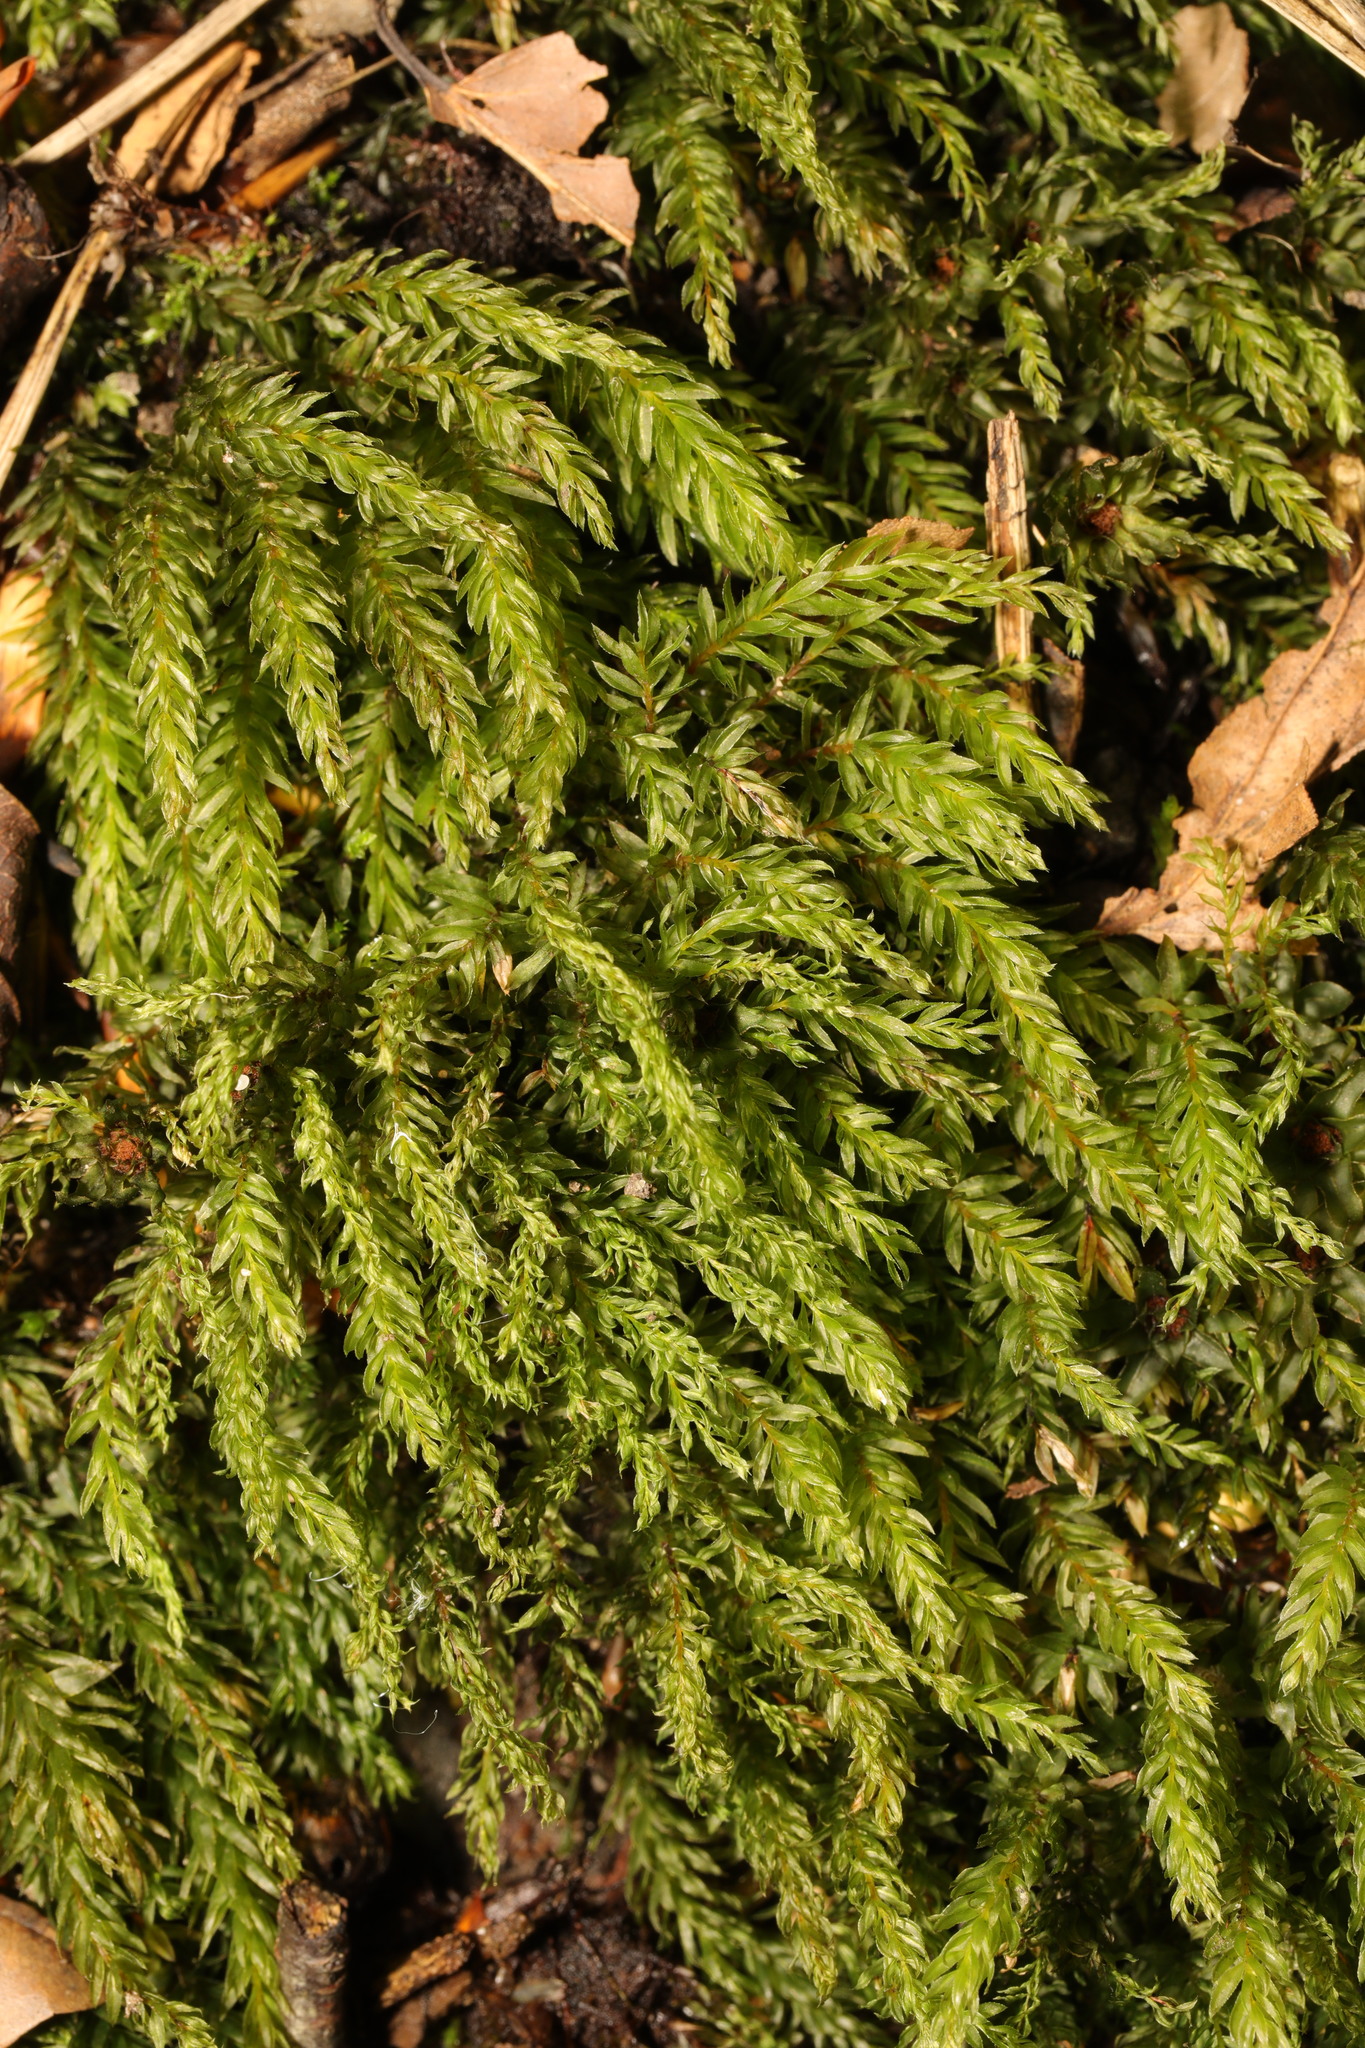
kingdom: Plantae
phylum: Bryophyta
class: Bryopsida
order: Bryales
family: Mniaceae
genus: Mnium
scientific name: Mnium hornum
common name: Swan's-neck leafy moss
